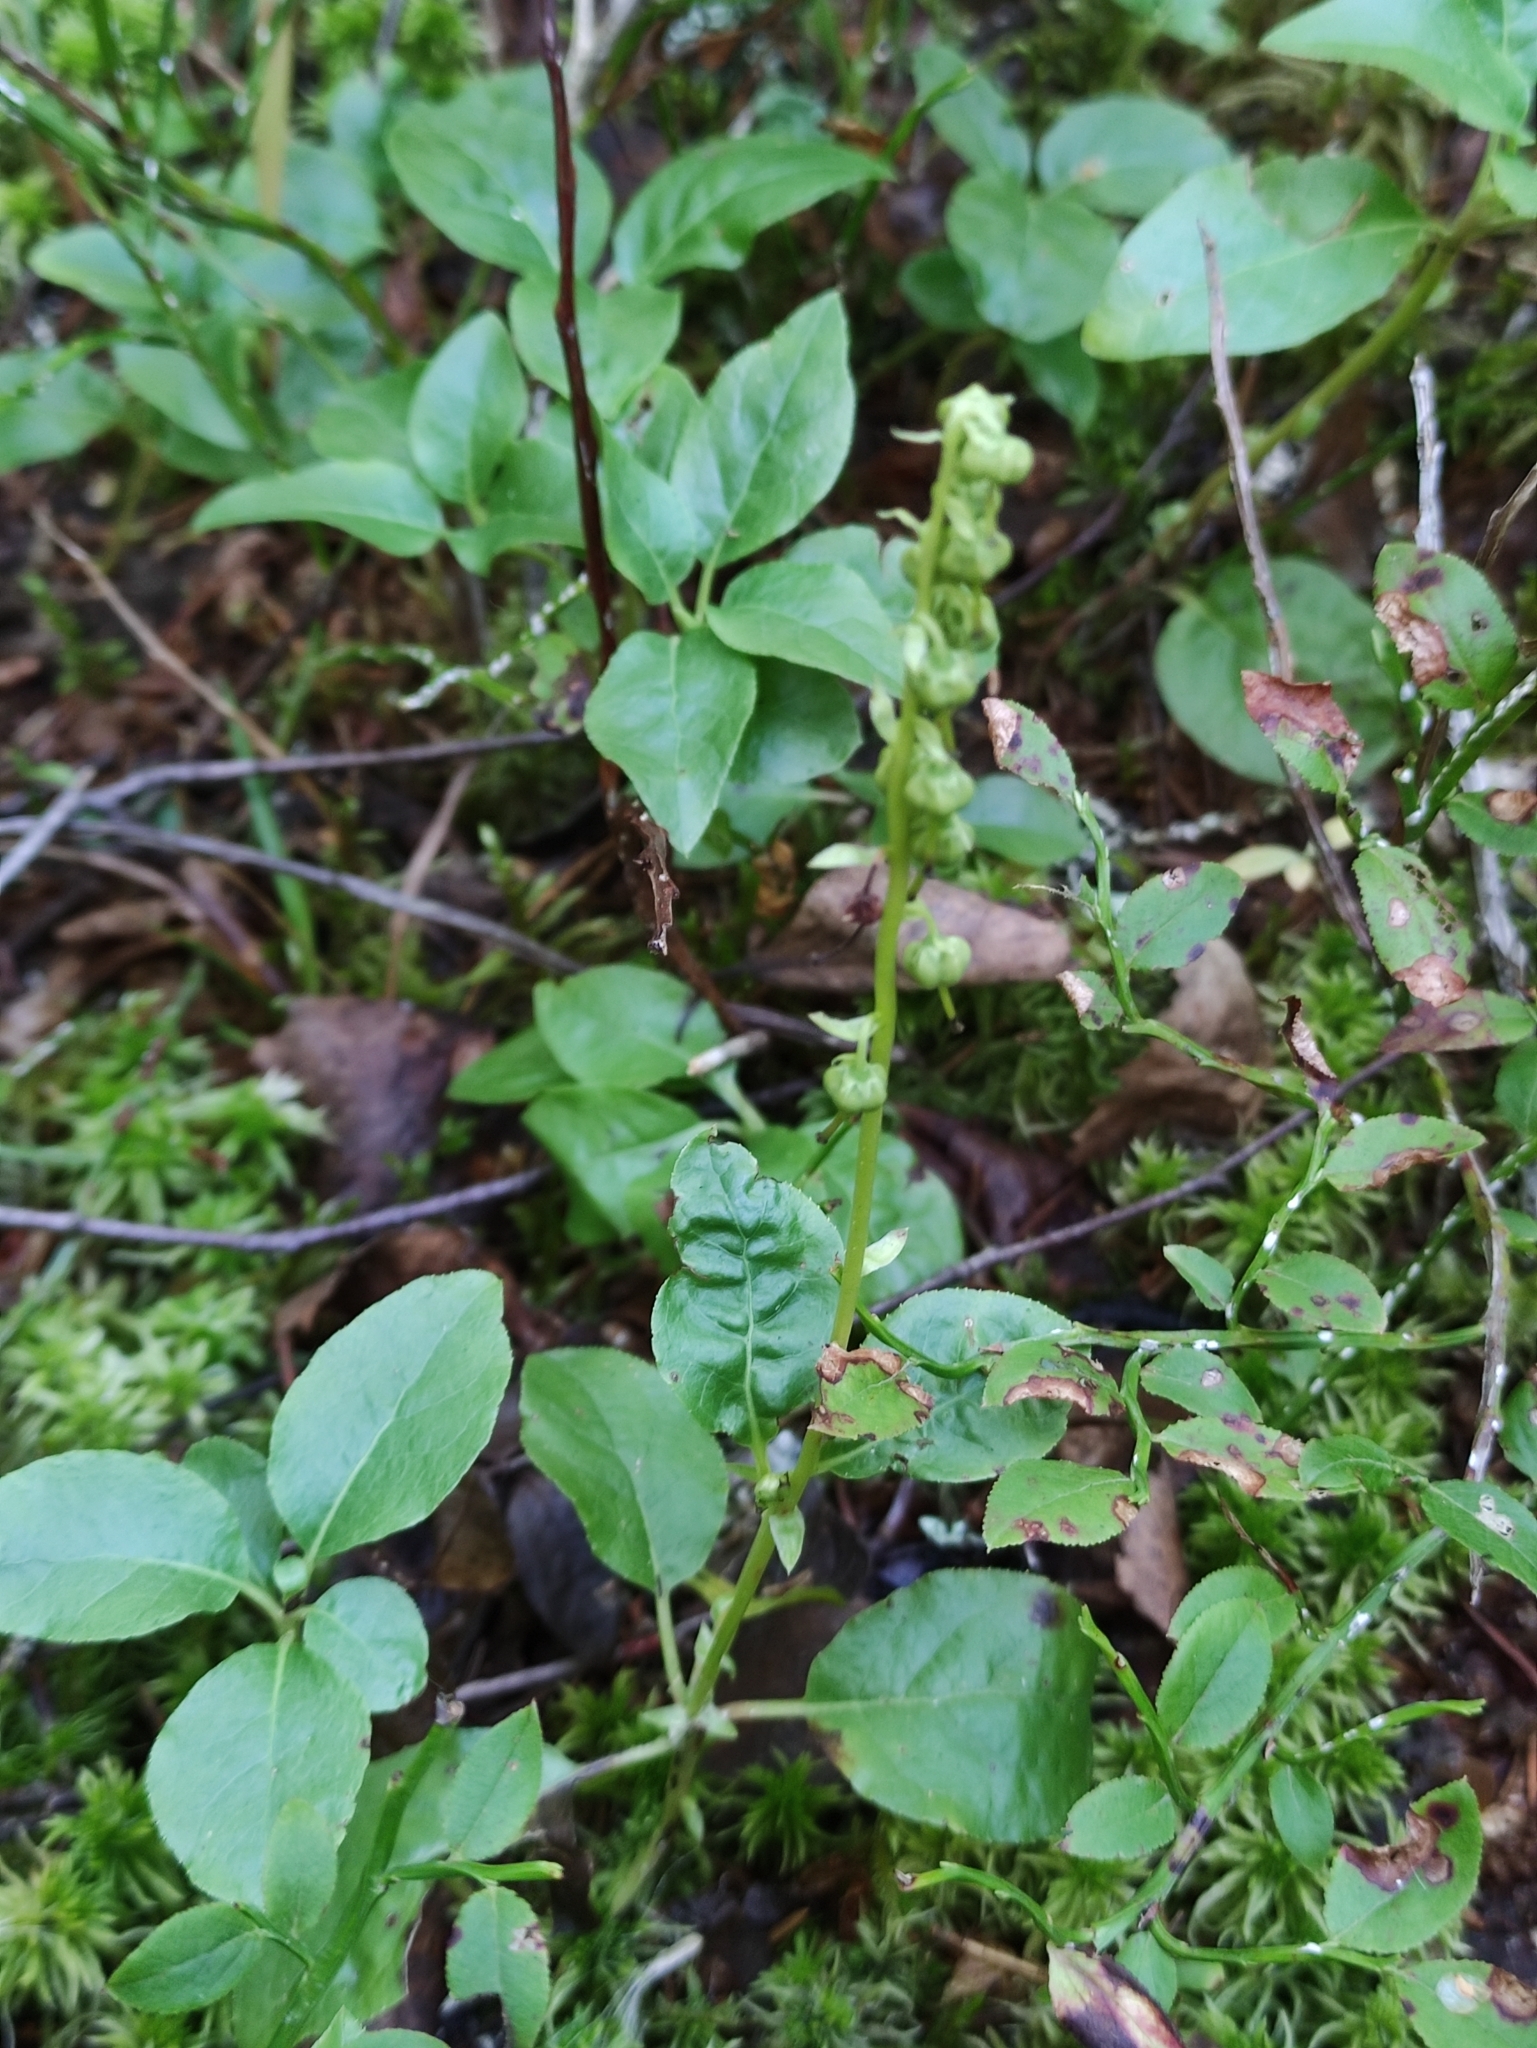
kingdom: Plantae
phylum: Tracheophyta
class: Magnoliopsida
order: Ericales
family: Ericaceae
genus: Orthilia
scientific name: Orthilia secunda
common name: One-sided orthilia
